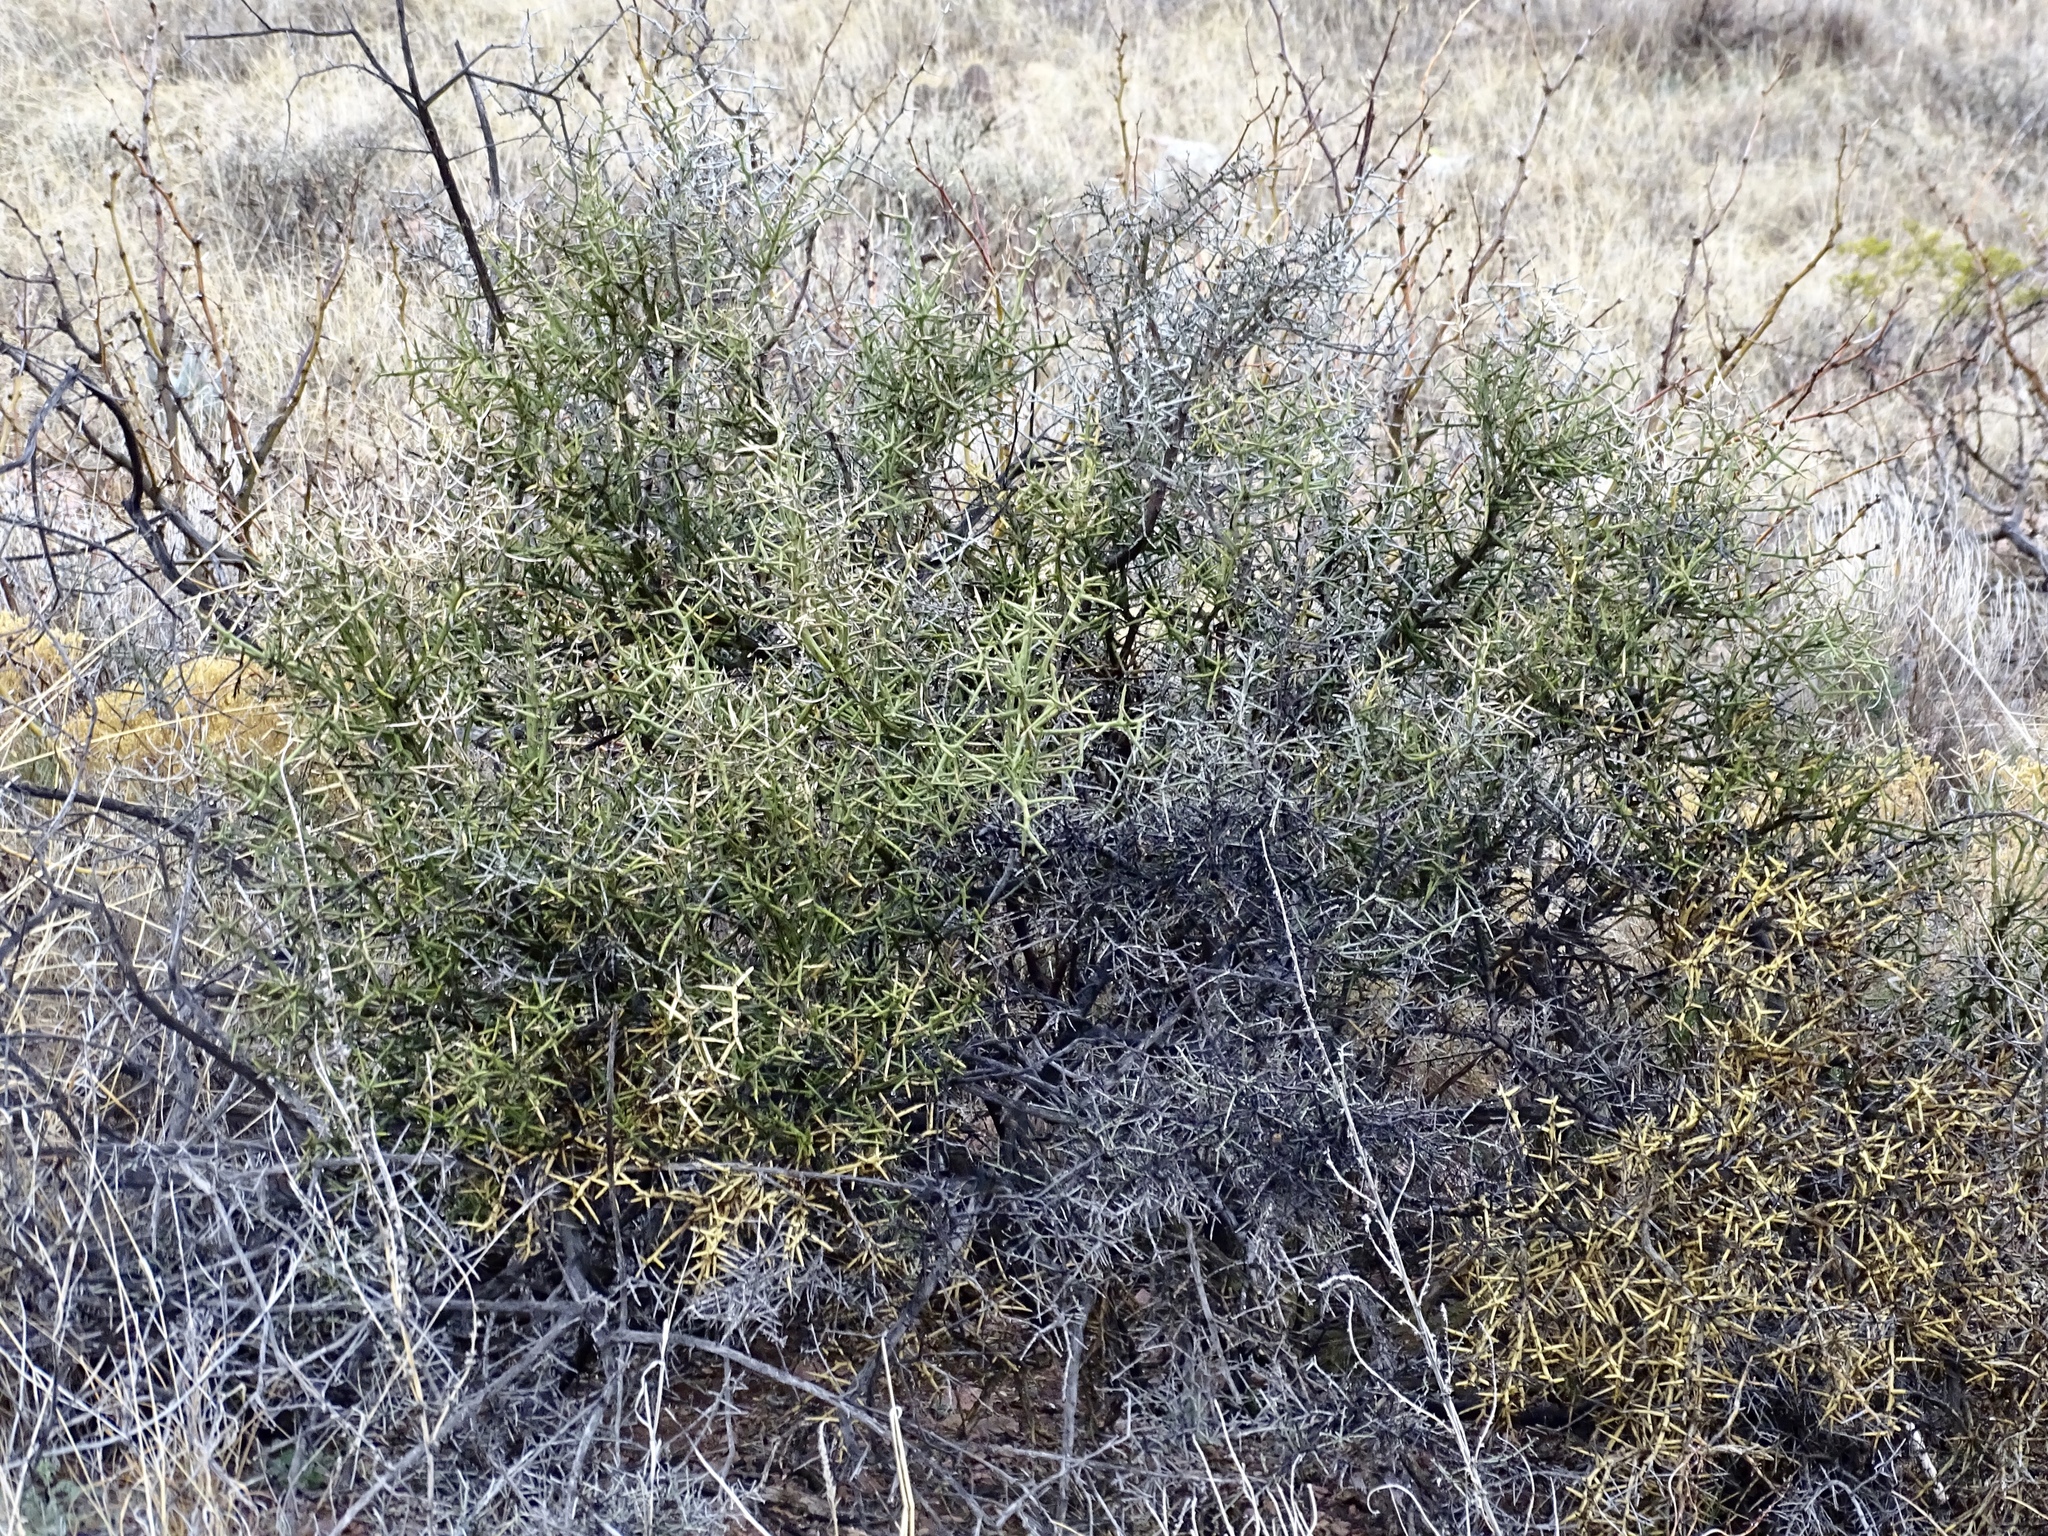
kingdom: Plantae
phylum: Tracheophyta
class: Magnoliopsida
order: Brassicales
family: Koeberliniaceae
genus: Koeberlinia
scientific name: Koeberlinia spinosa
